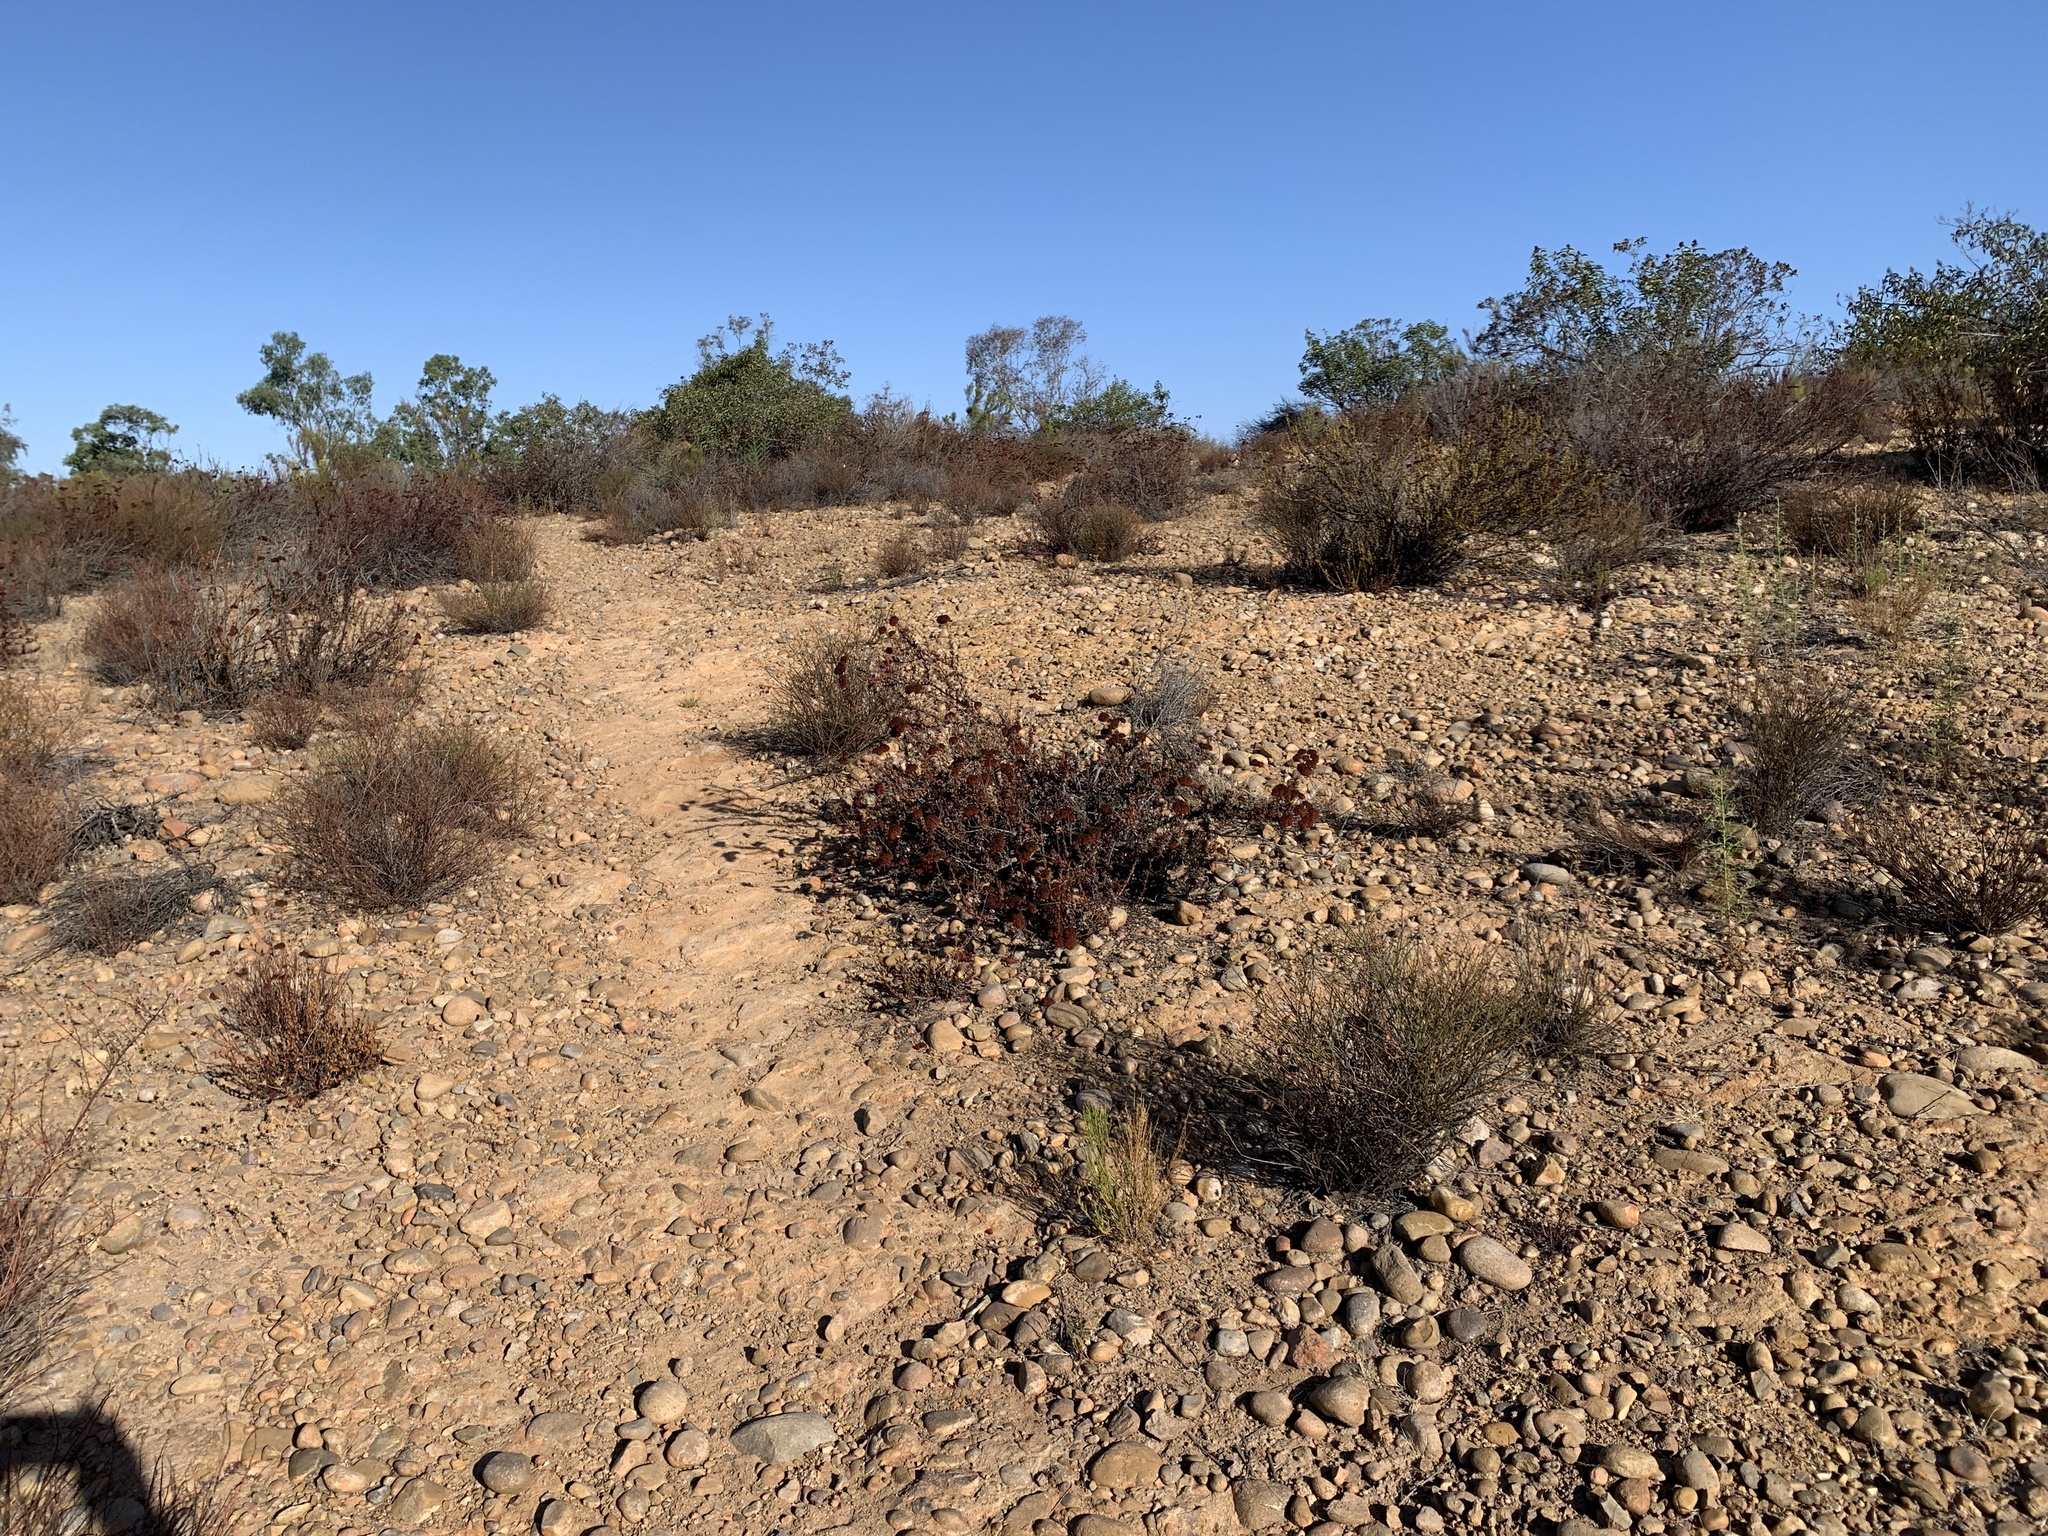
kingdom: Plantae
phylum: Tracheophyta
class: Magnoliopsida
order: Caryophyllales
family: Polygonaceae
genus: Eriogonum
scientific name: Eriogonum fasciculatum
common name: California wild buckwheat
